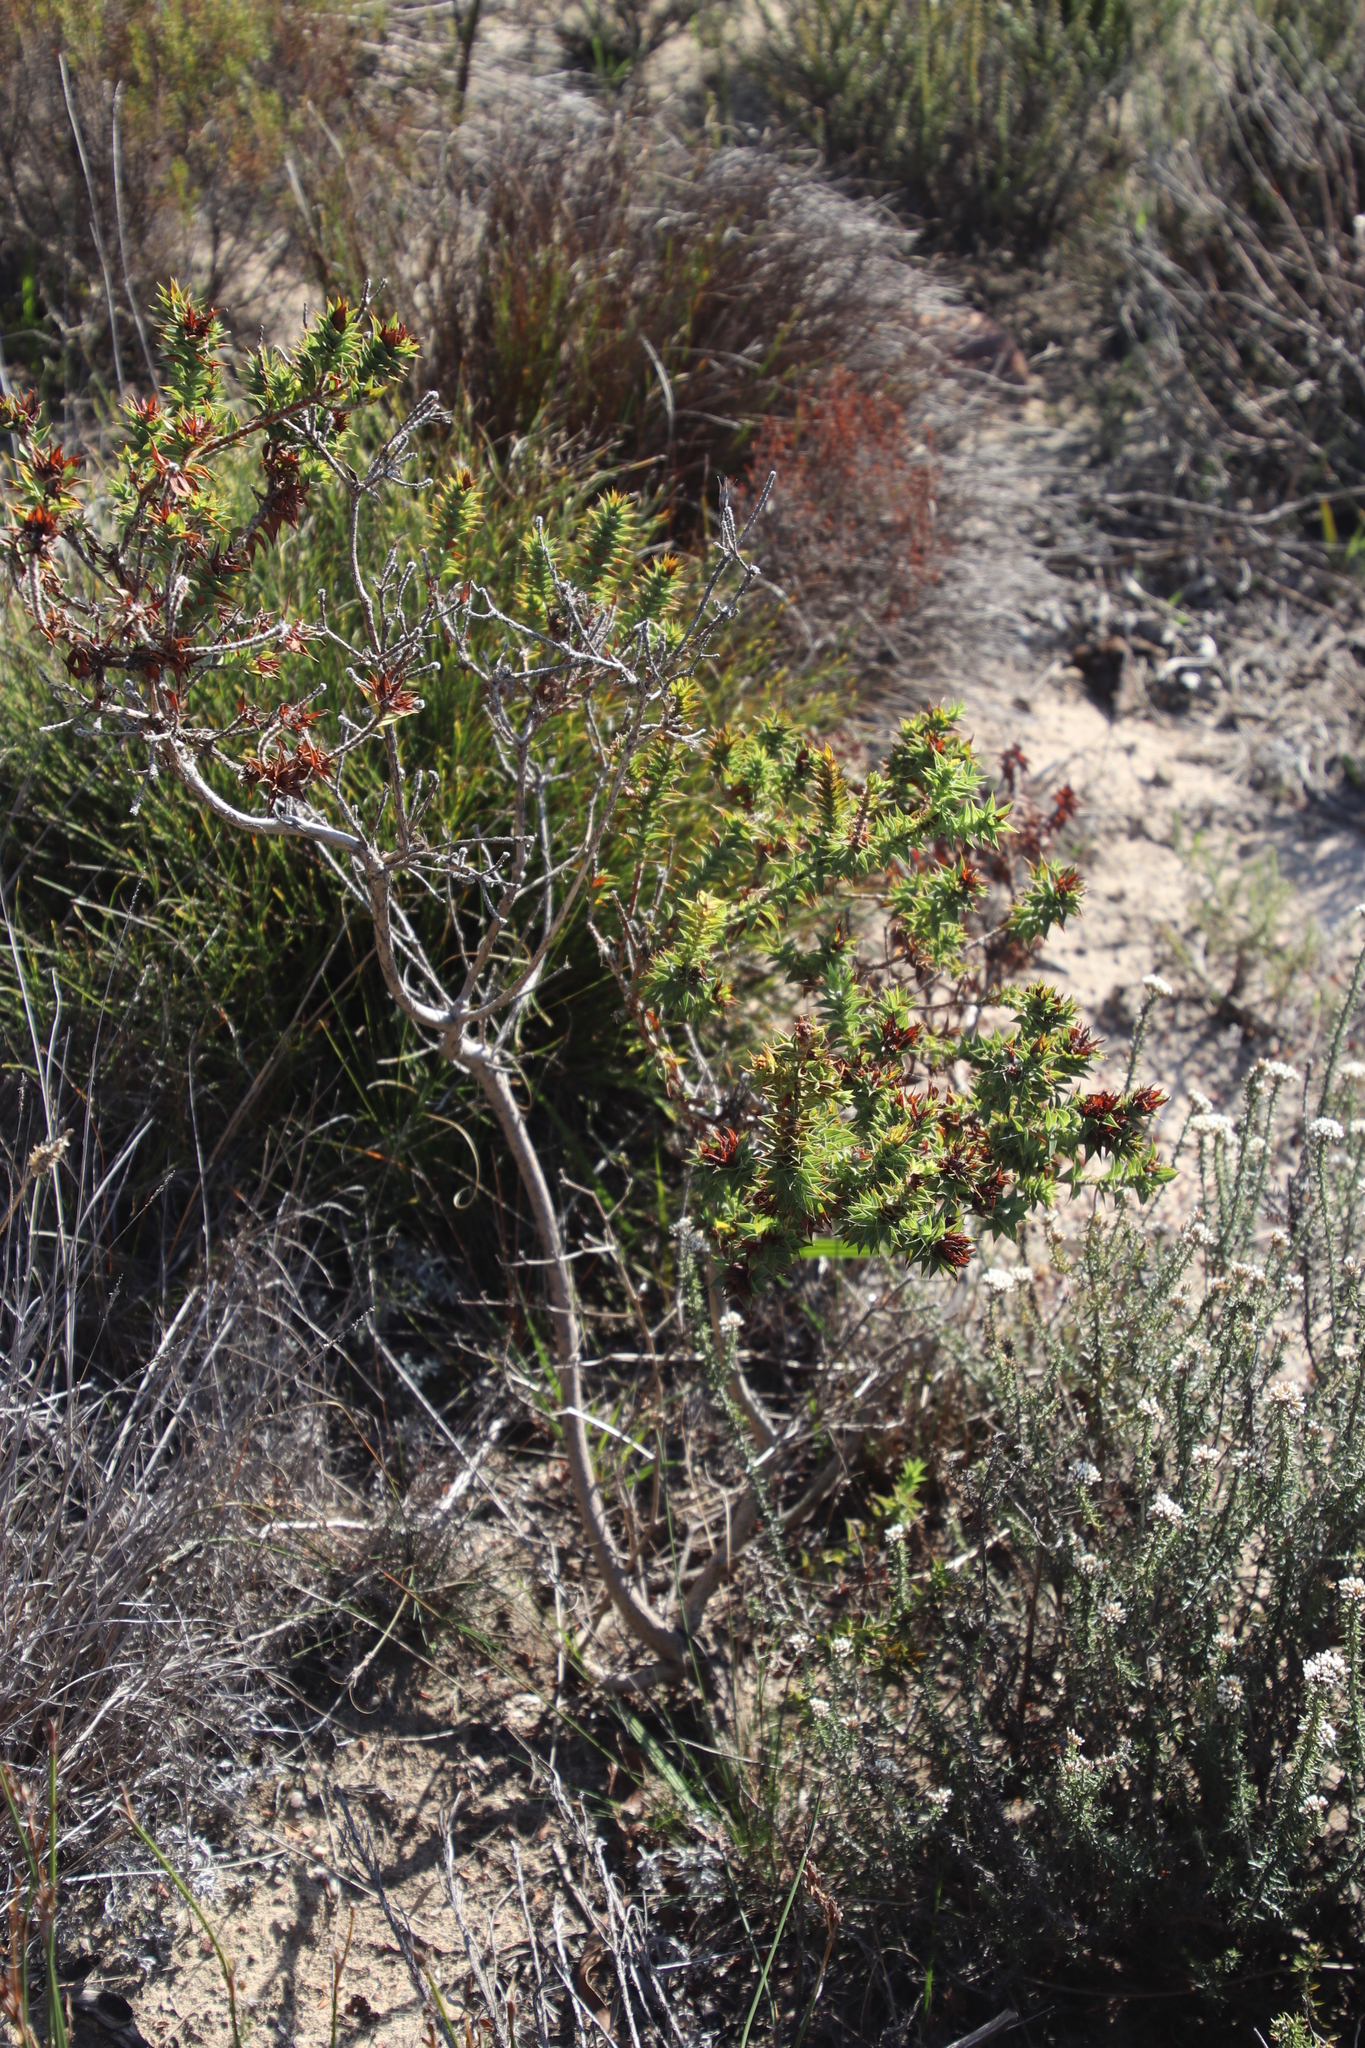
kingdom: Plantae
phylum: Tracheophyta
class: Magnoliopsida
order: Fabales
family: Fabaceae
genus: Aspalathus
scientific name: Aspalathus cordata
